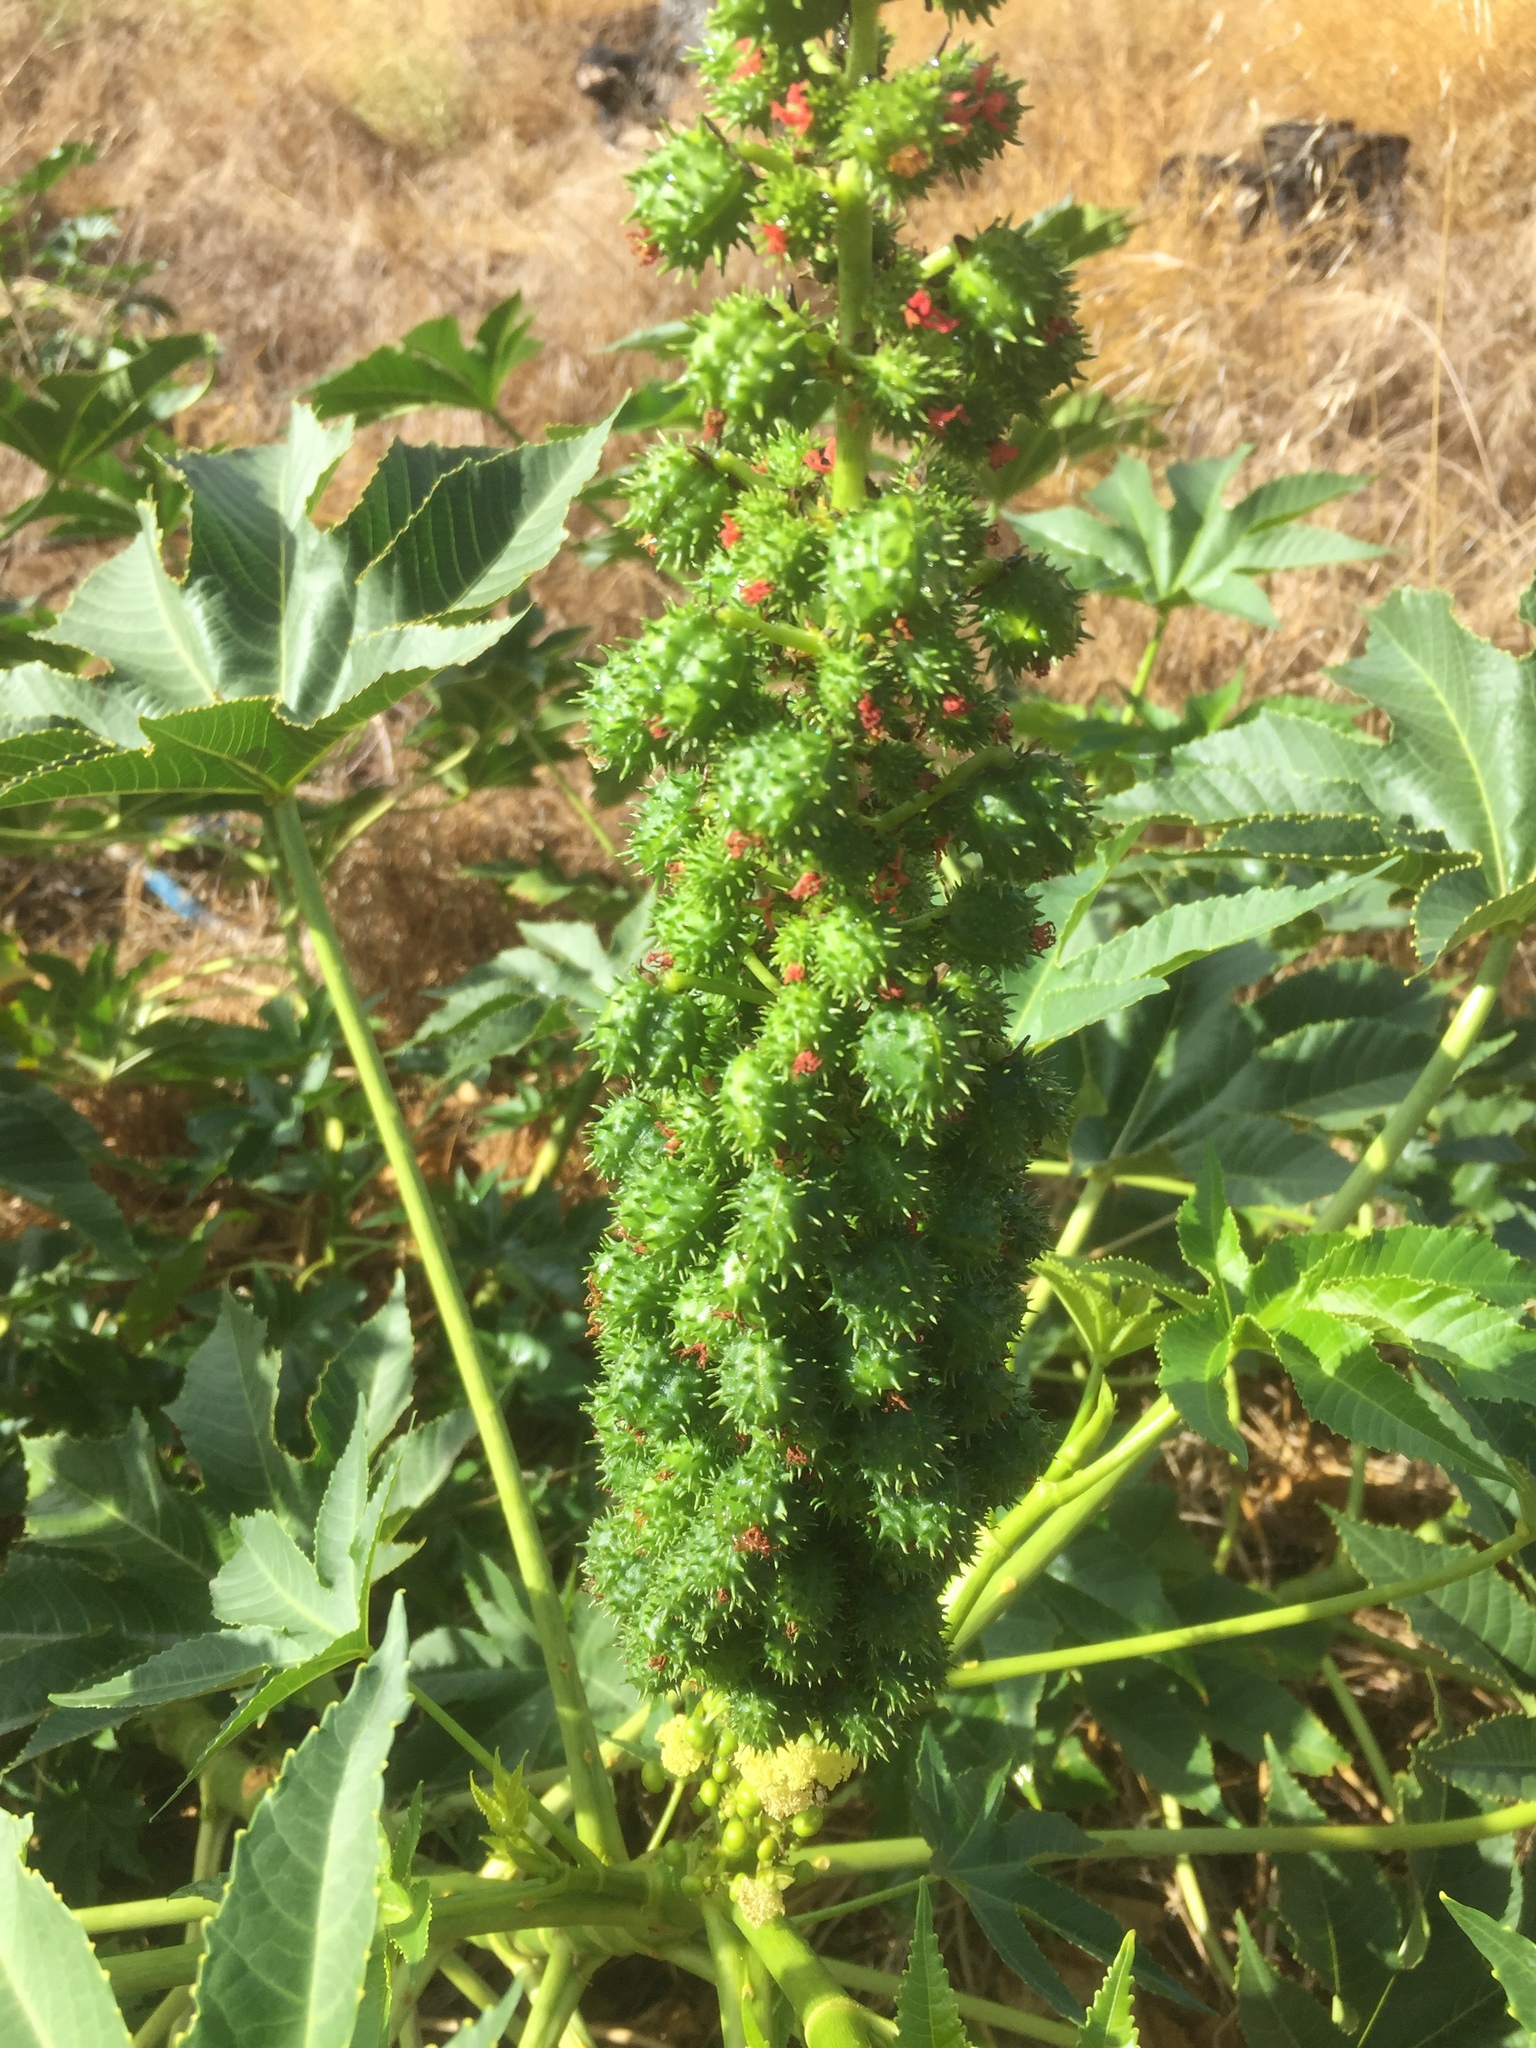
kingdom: Plantae
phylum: Tracheophyta
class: Magnoliopsida
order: Malpighiales
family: Euphorbiaceae
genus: Ricinus
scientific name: Ricinus communis
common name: Castor-oil-plant
